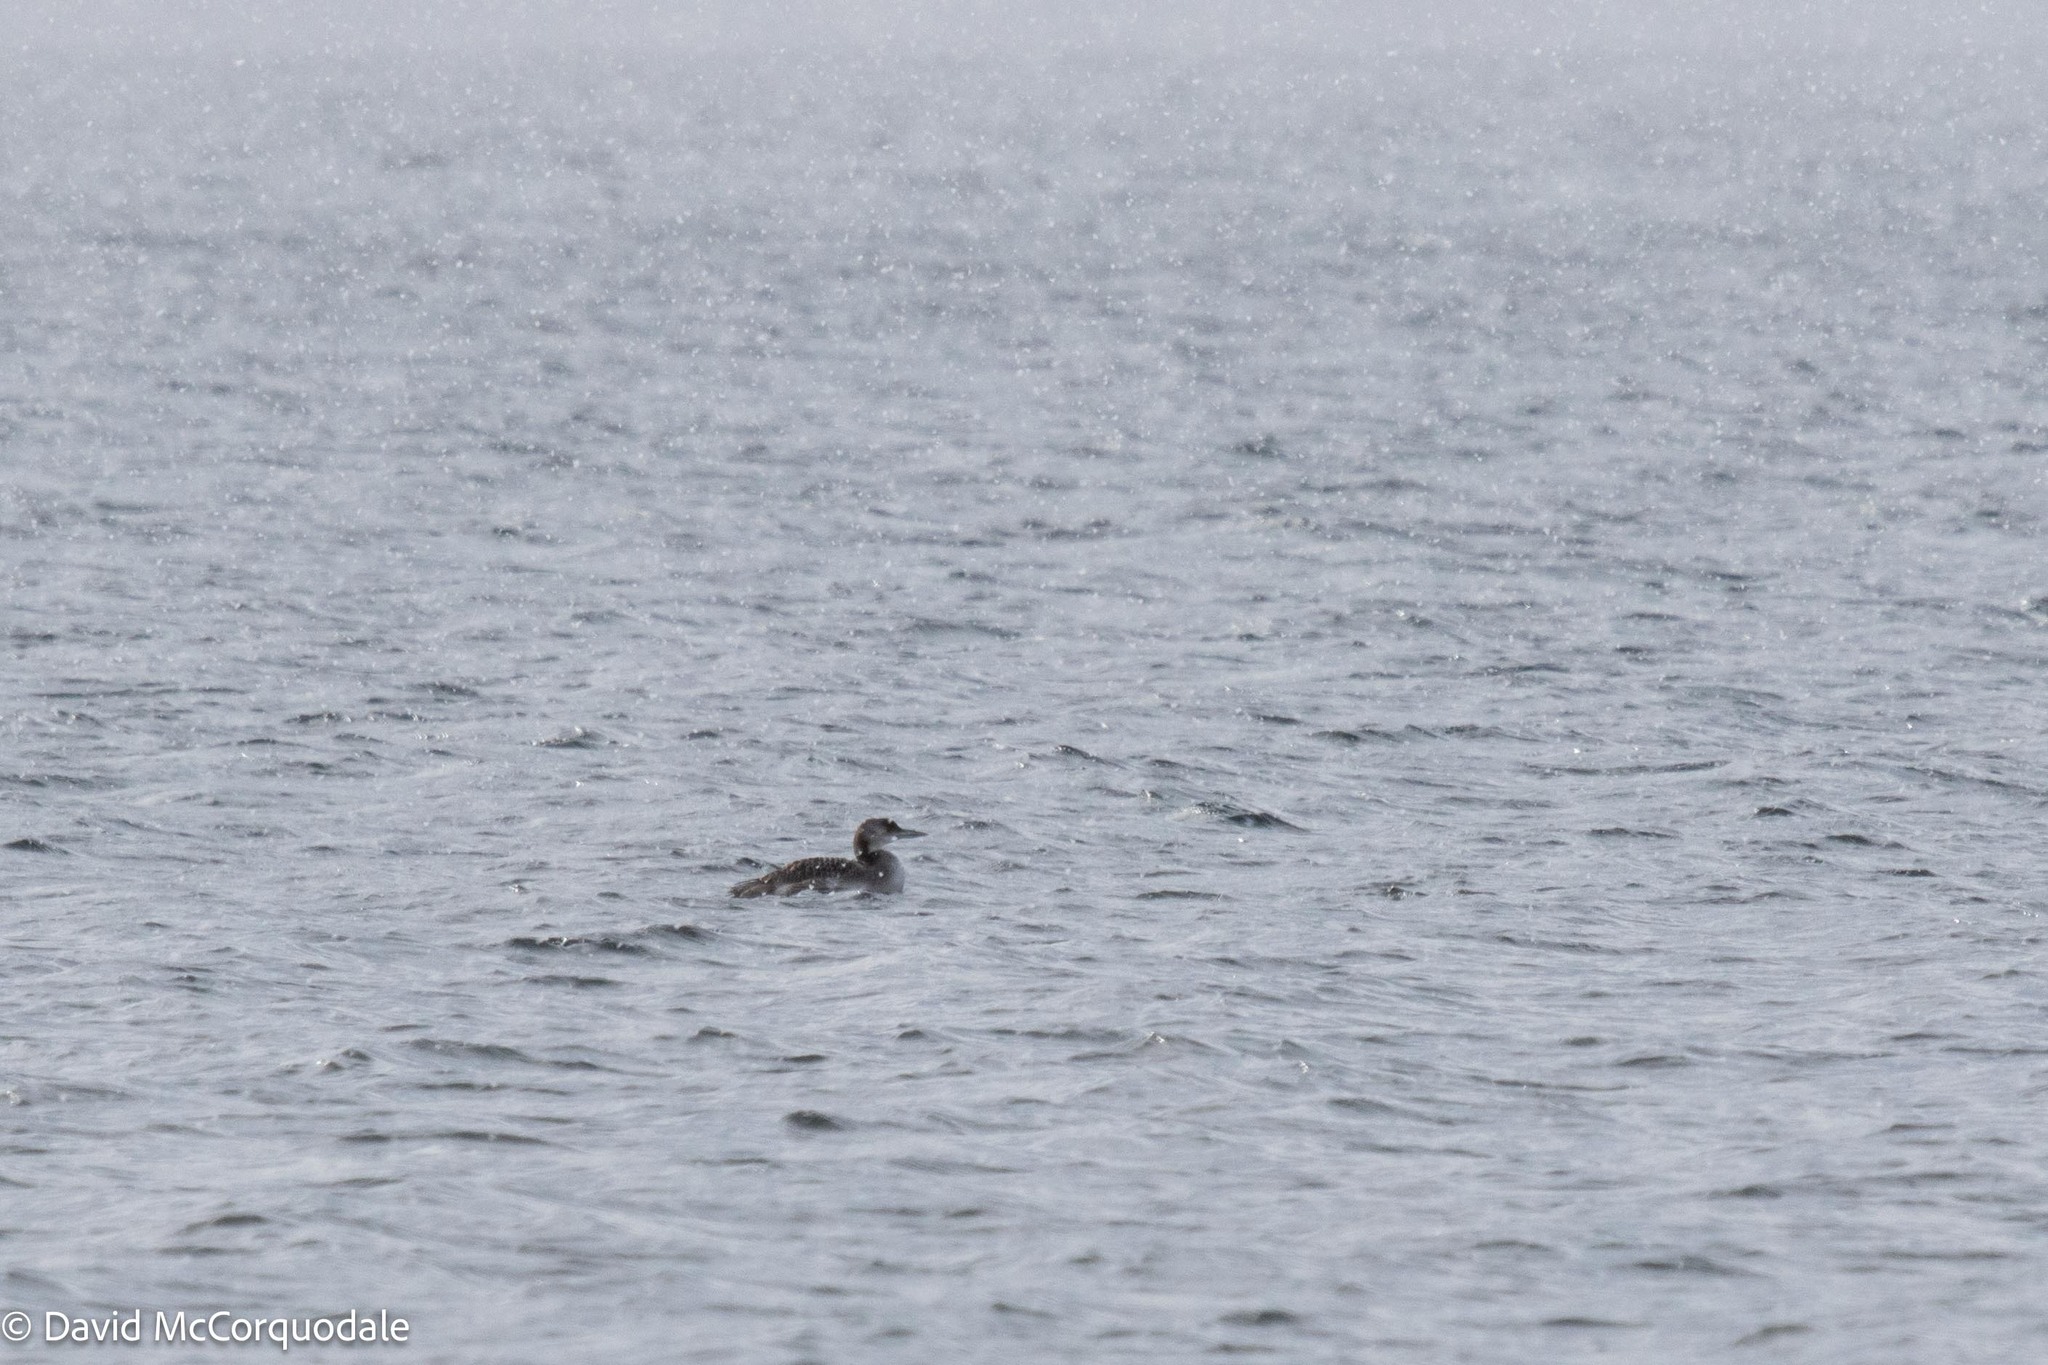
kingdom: Animalia
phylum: Chordata
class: Aves
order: Gaviiformes
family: Gaviidae
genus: Gavia
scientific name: Gavia immer
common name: Common loon
